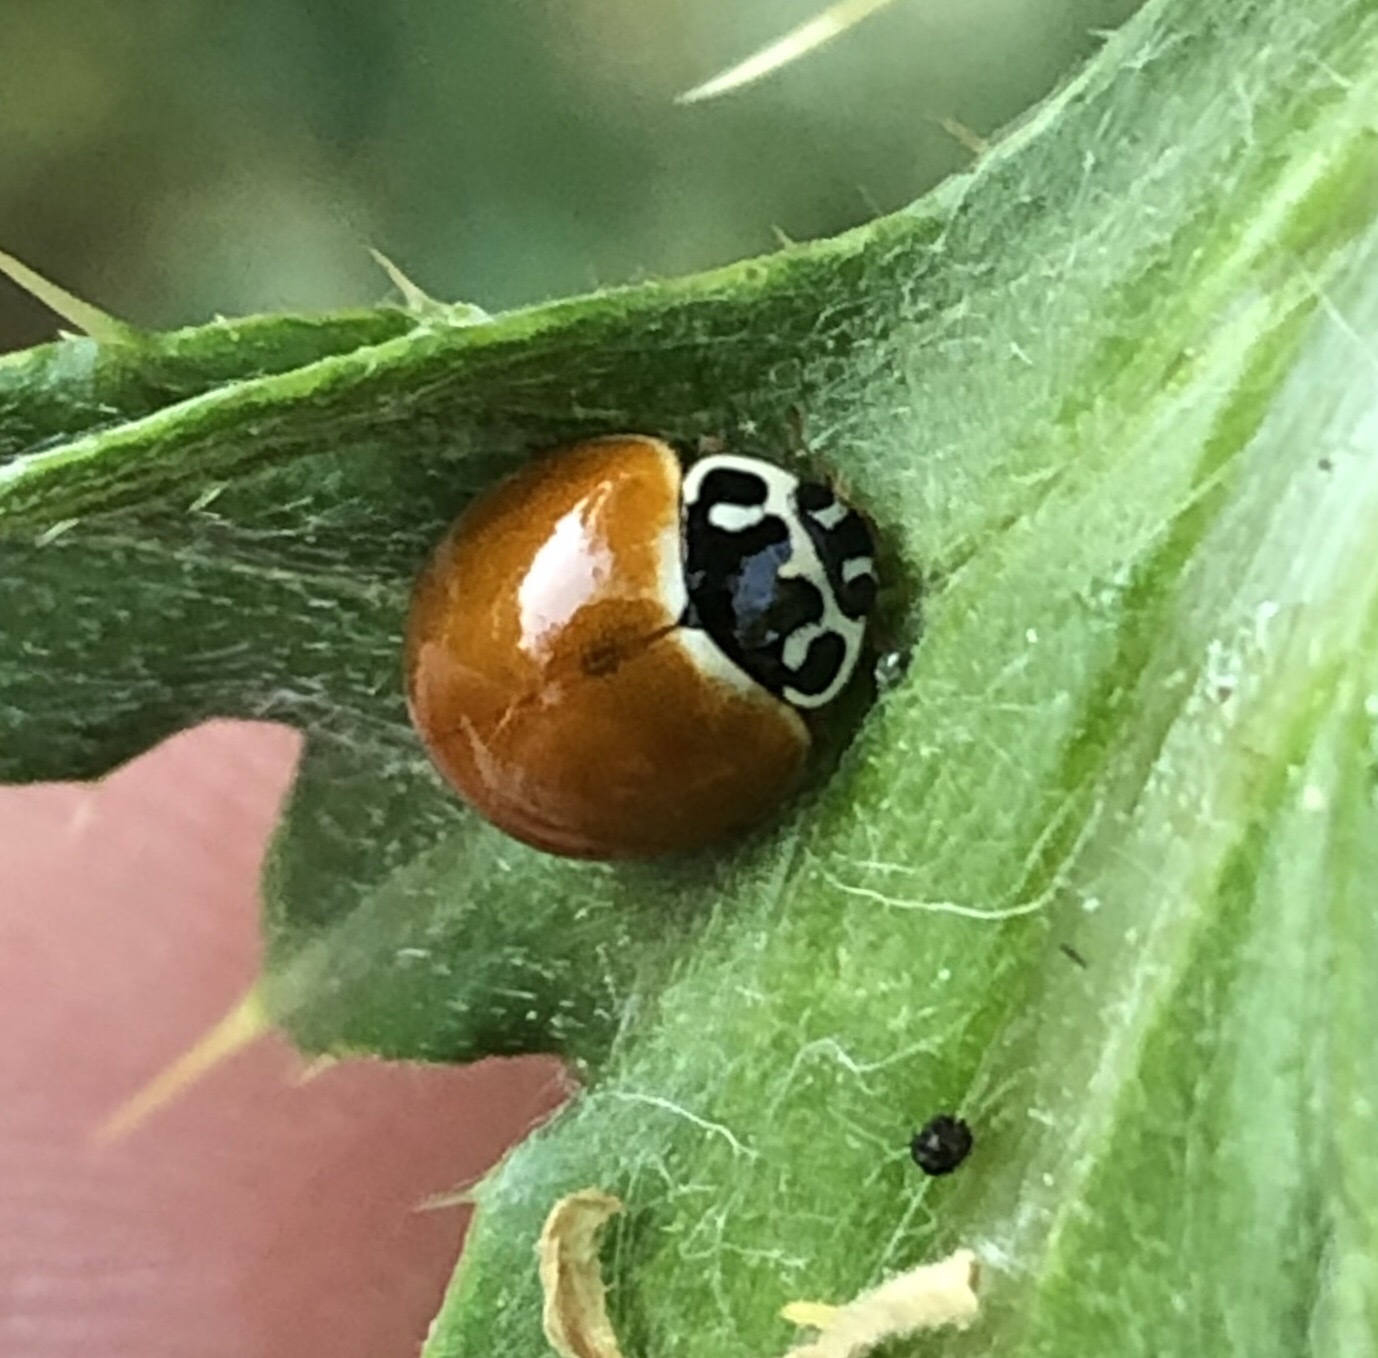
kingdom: Animalia
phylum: Arthropoda
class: Insecta
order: Coleoptera
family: Coccinellidae
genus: Cycloneda
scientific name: Cycloneda munda
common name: Polished lady beetle
